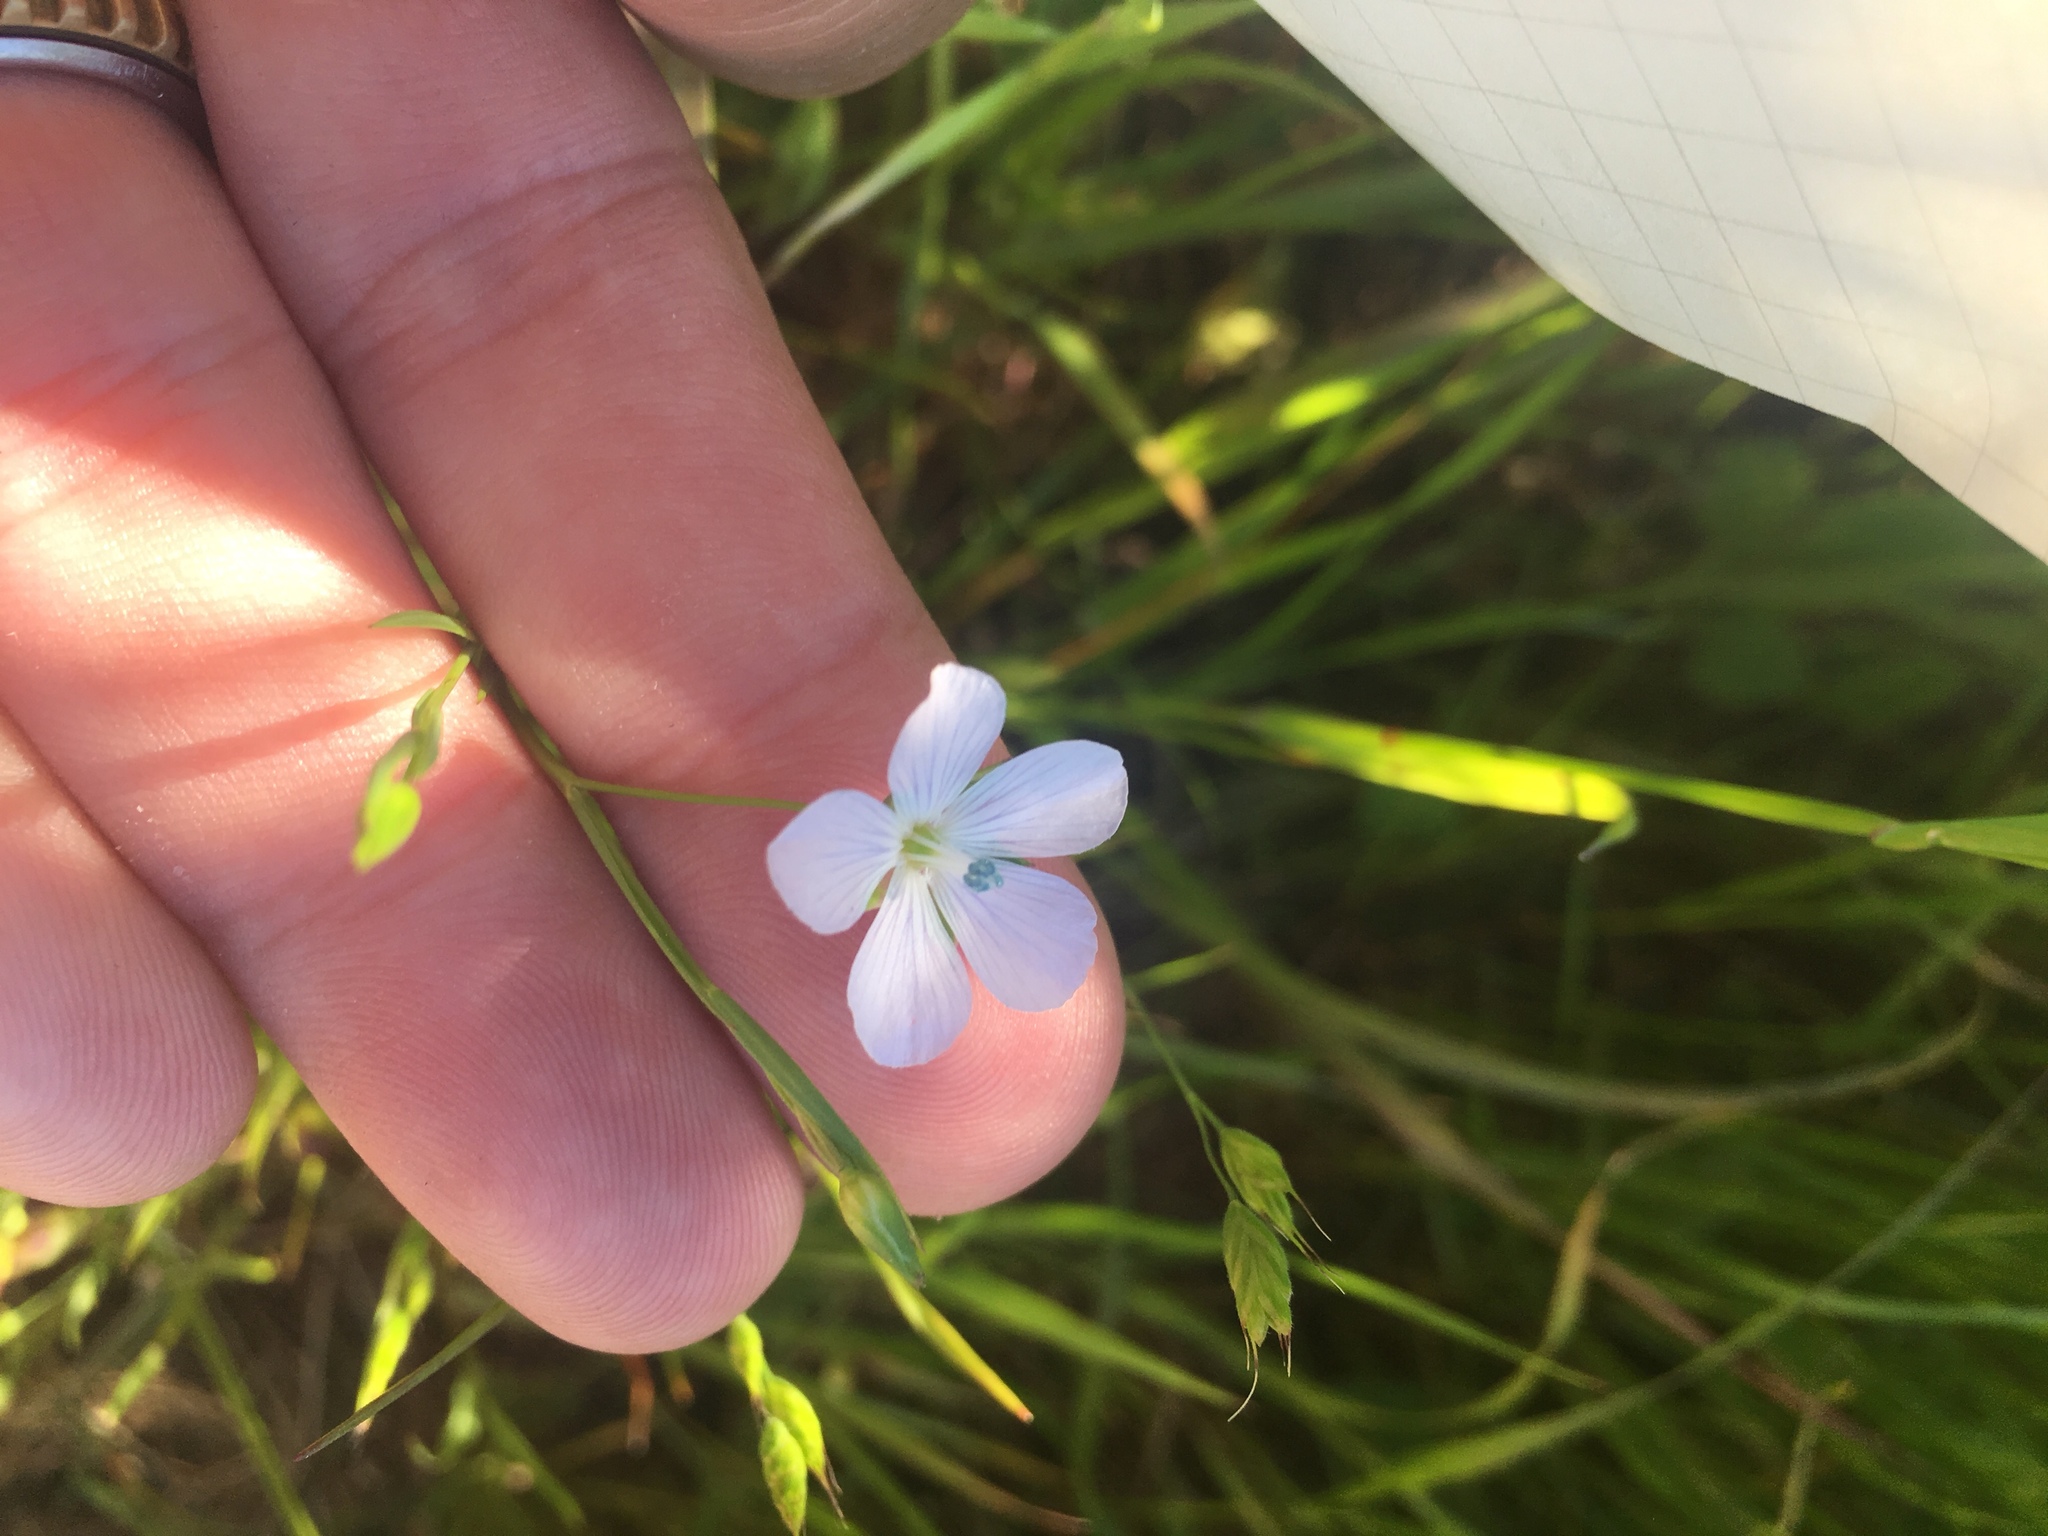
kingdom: Plantae
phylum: Tracheophyta
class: Magnoliopsida
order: Malpighiales
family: Linaceae
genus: Linum
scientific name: Linum bienne
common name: Pale flax
